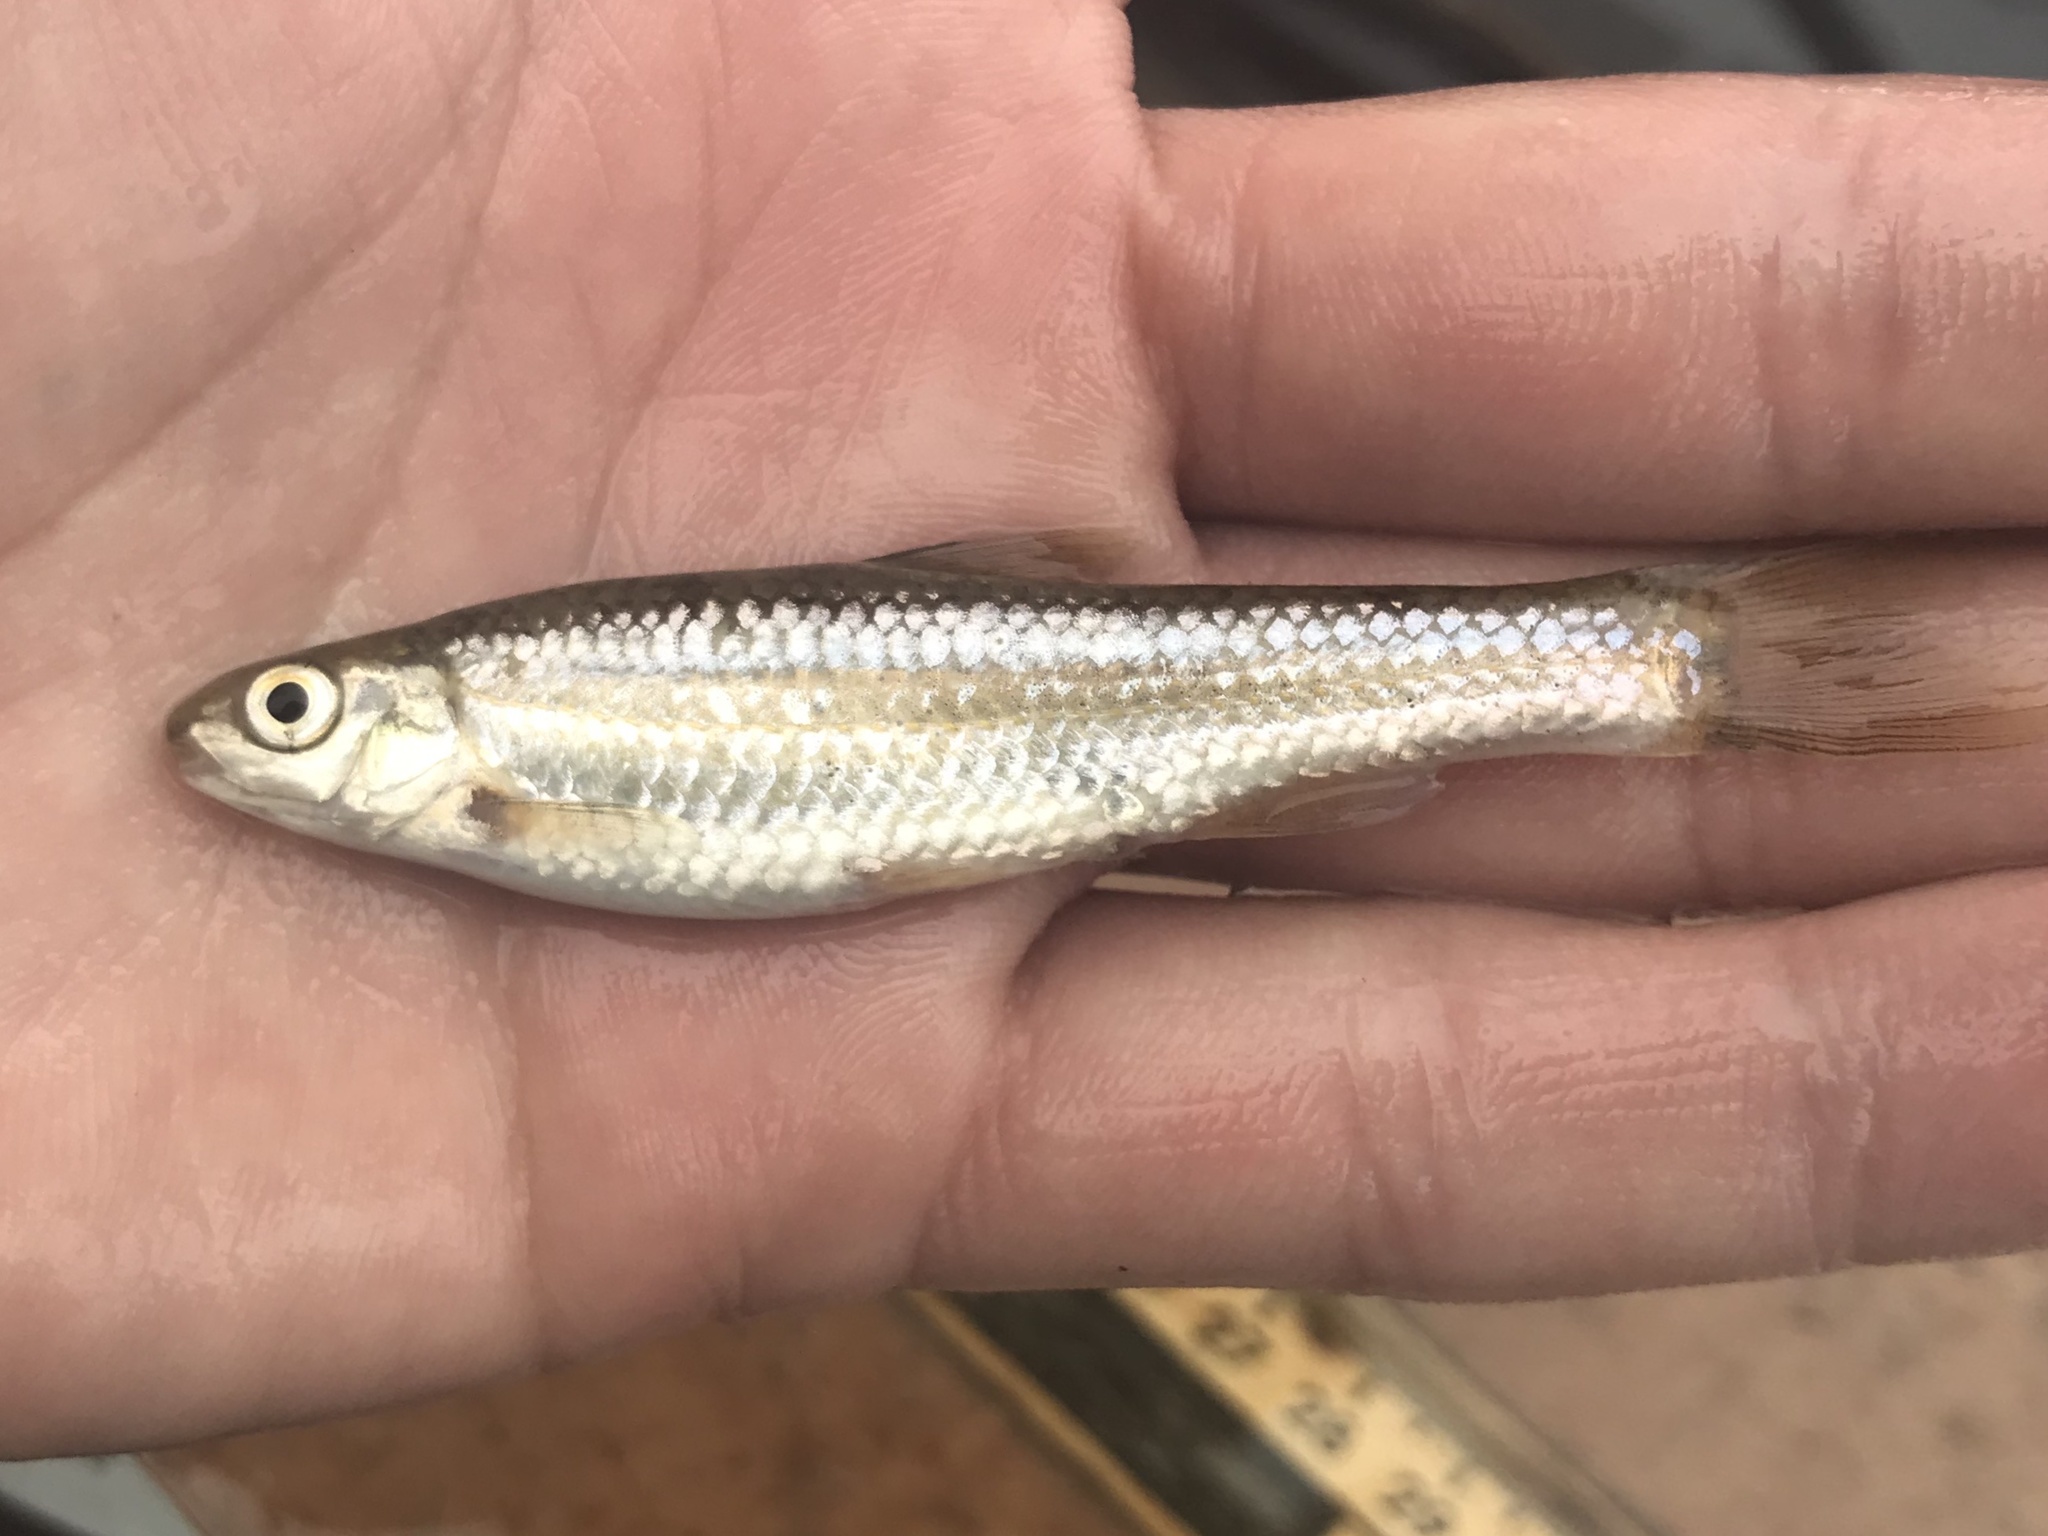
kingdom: Animalia
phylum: Chordata
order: Cypriniformes
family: Cyprinidae
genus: Dionda
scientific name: Dionda flavipinnis
